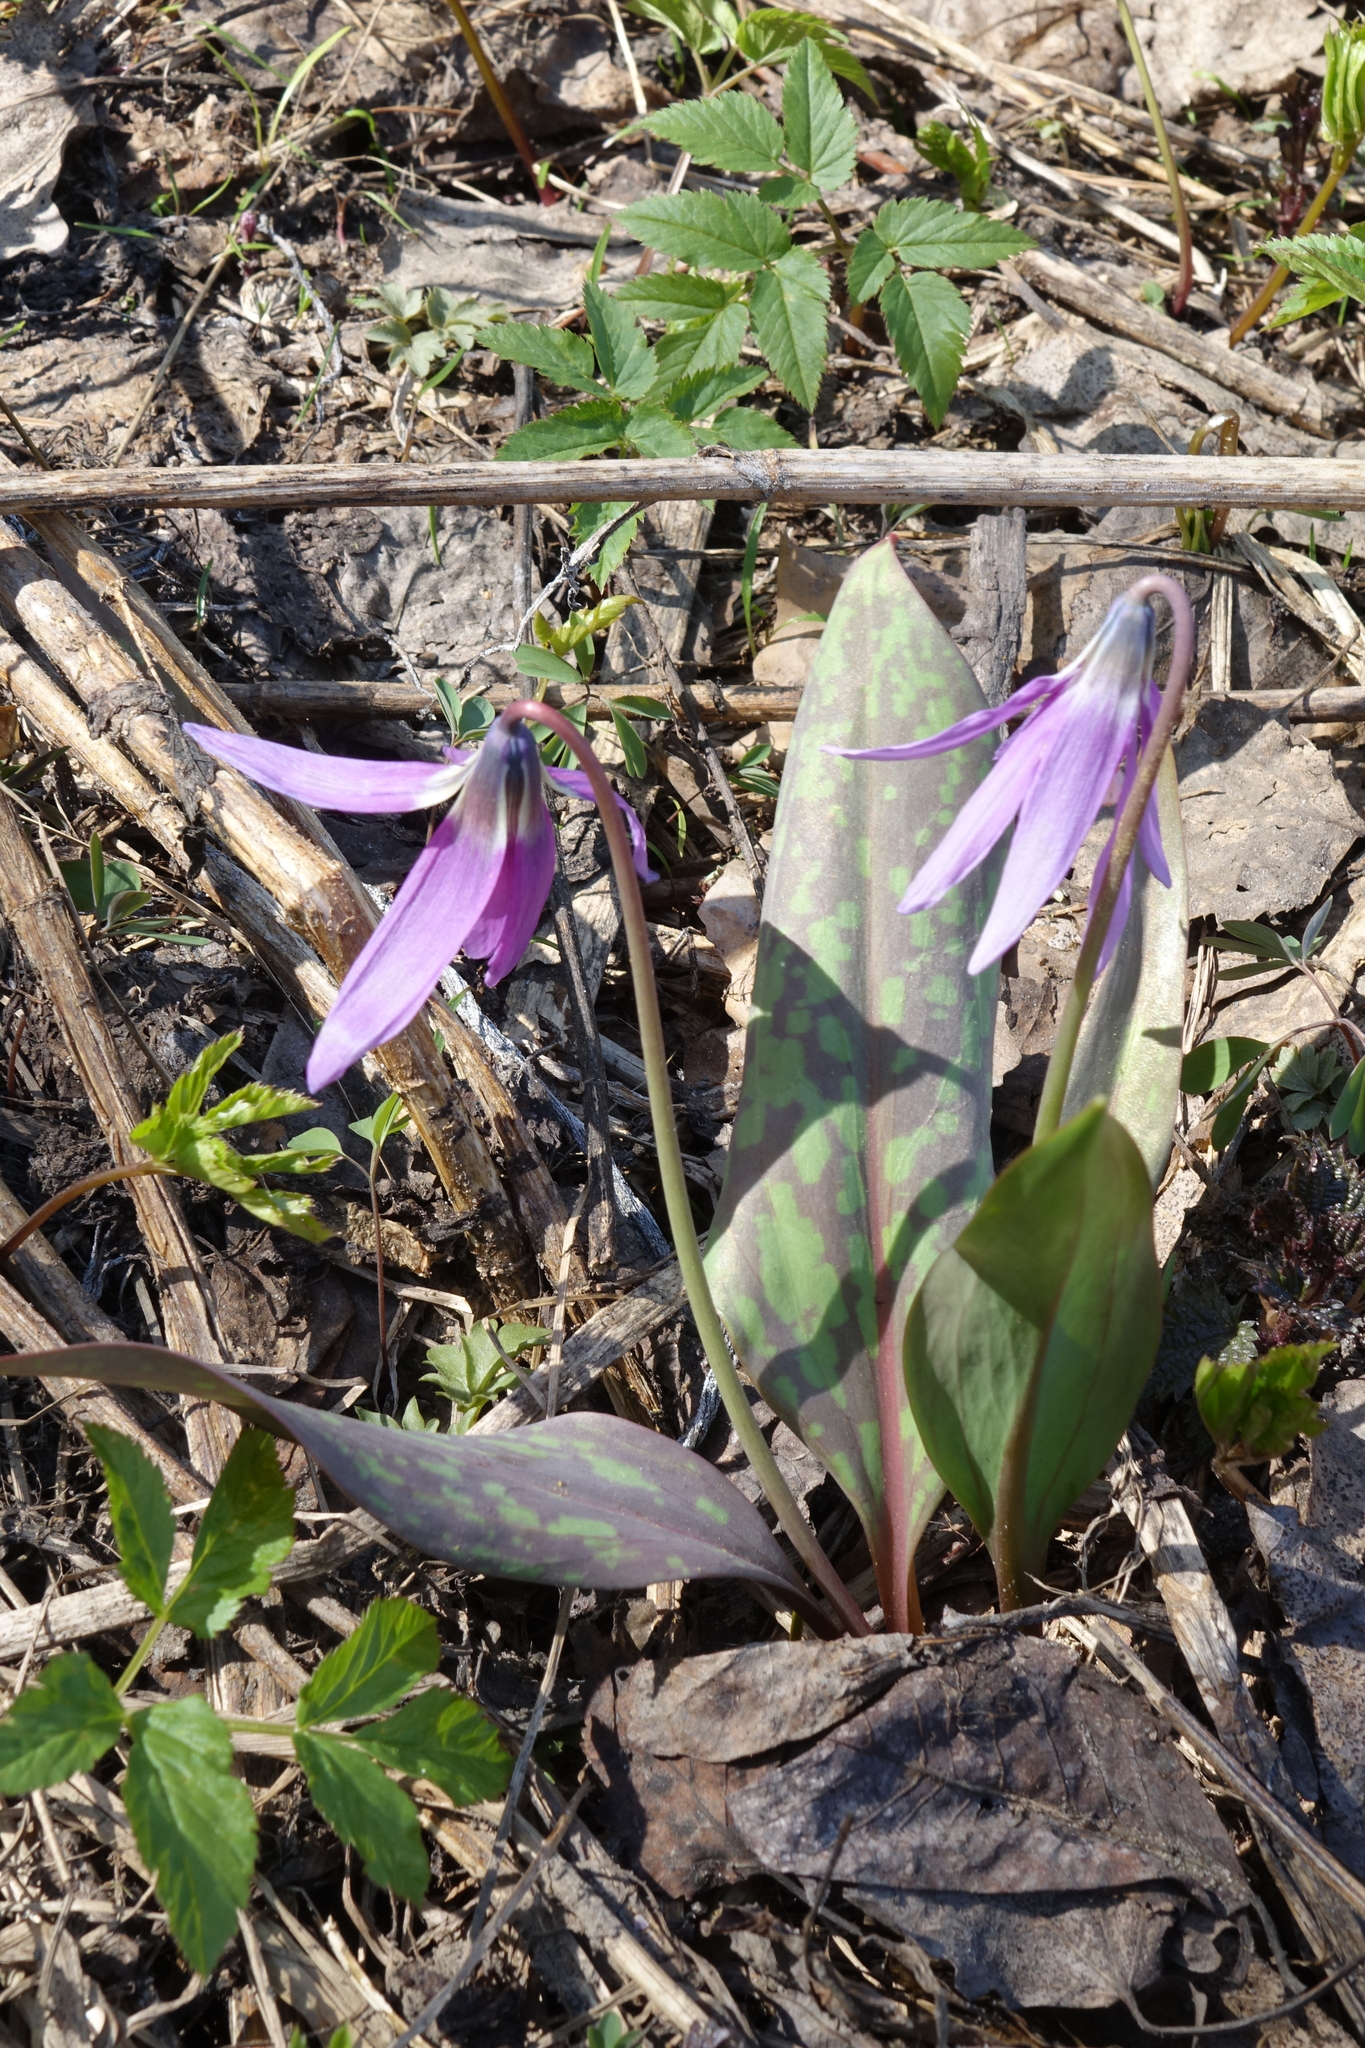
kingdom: Plantae
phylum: Tracheophyta
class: Liliopsida
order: Liliales
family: Liliaceae
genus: Erythronium
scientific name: Erythronium sibiricum
